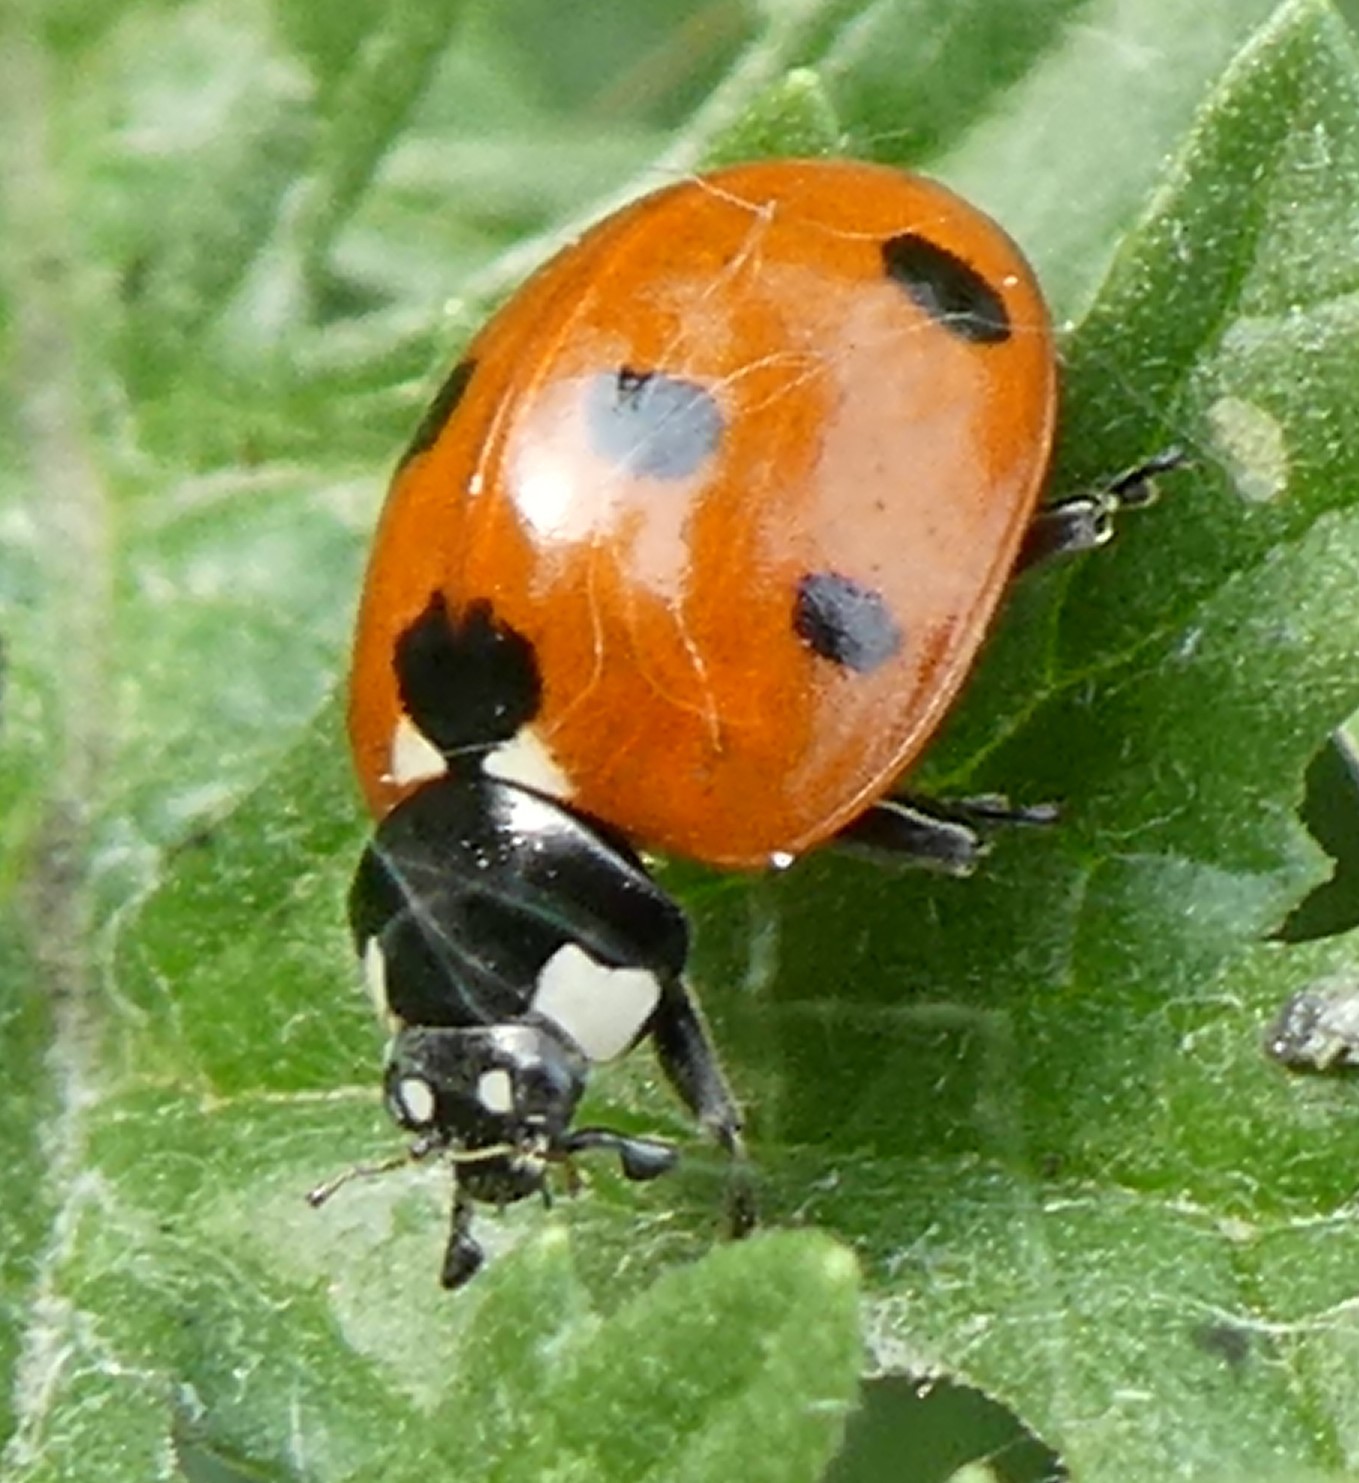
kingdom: Animalia
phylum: Arthropoda
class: Insecta
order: Coleoptera
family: Coccinellidae
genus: Coccinella
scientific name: Coccinella septempunctata
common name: Sevenspotted lady beetle
